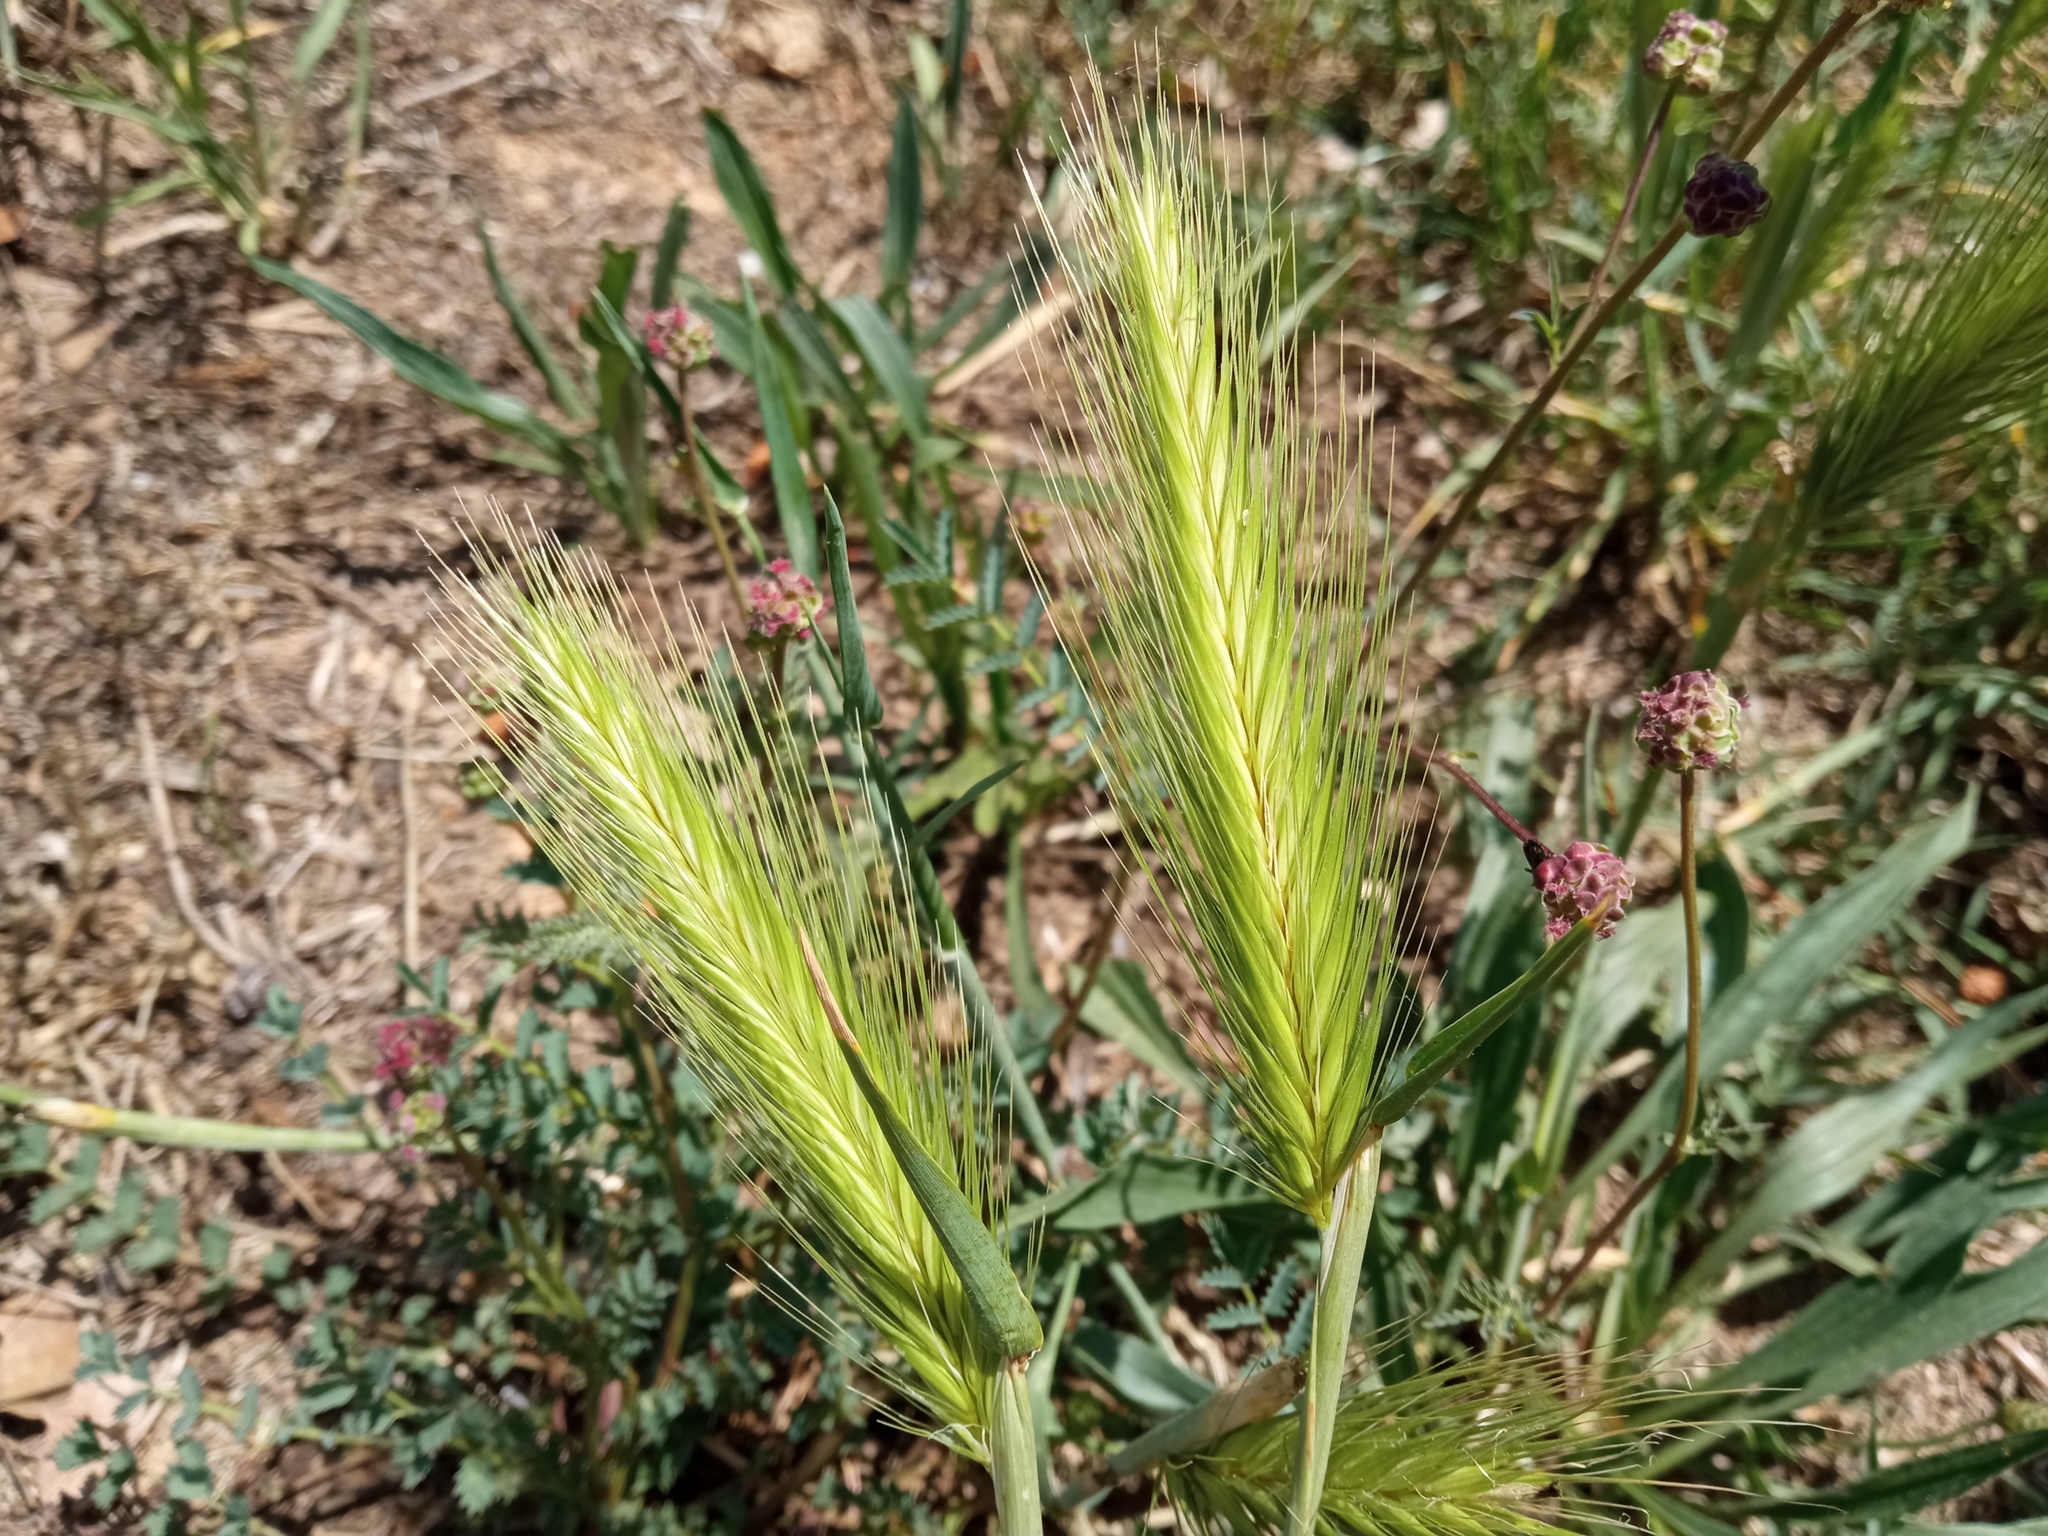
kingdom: Plantae
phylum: Tracheophyta
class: Liliopsida
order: Poales
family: Poaceae
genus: Hordeum
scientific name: Hordeum murinum
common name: Wall barley
